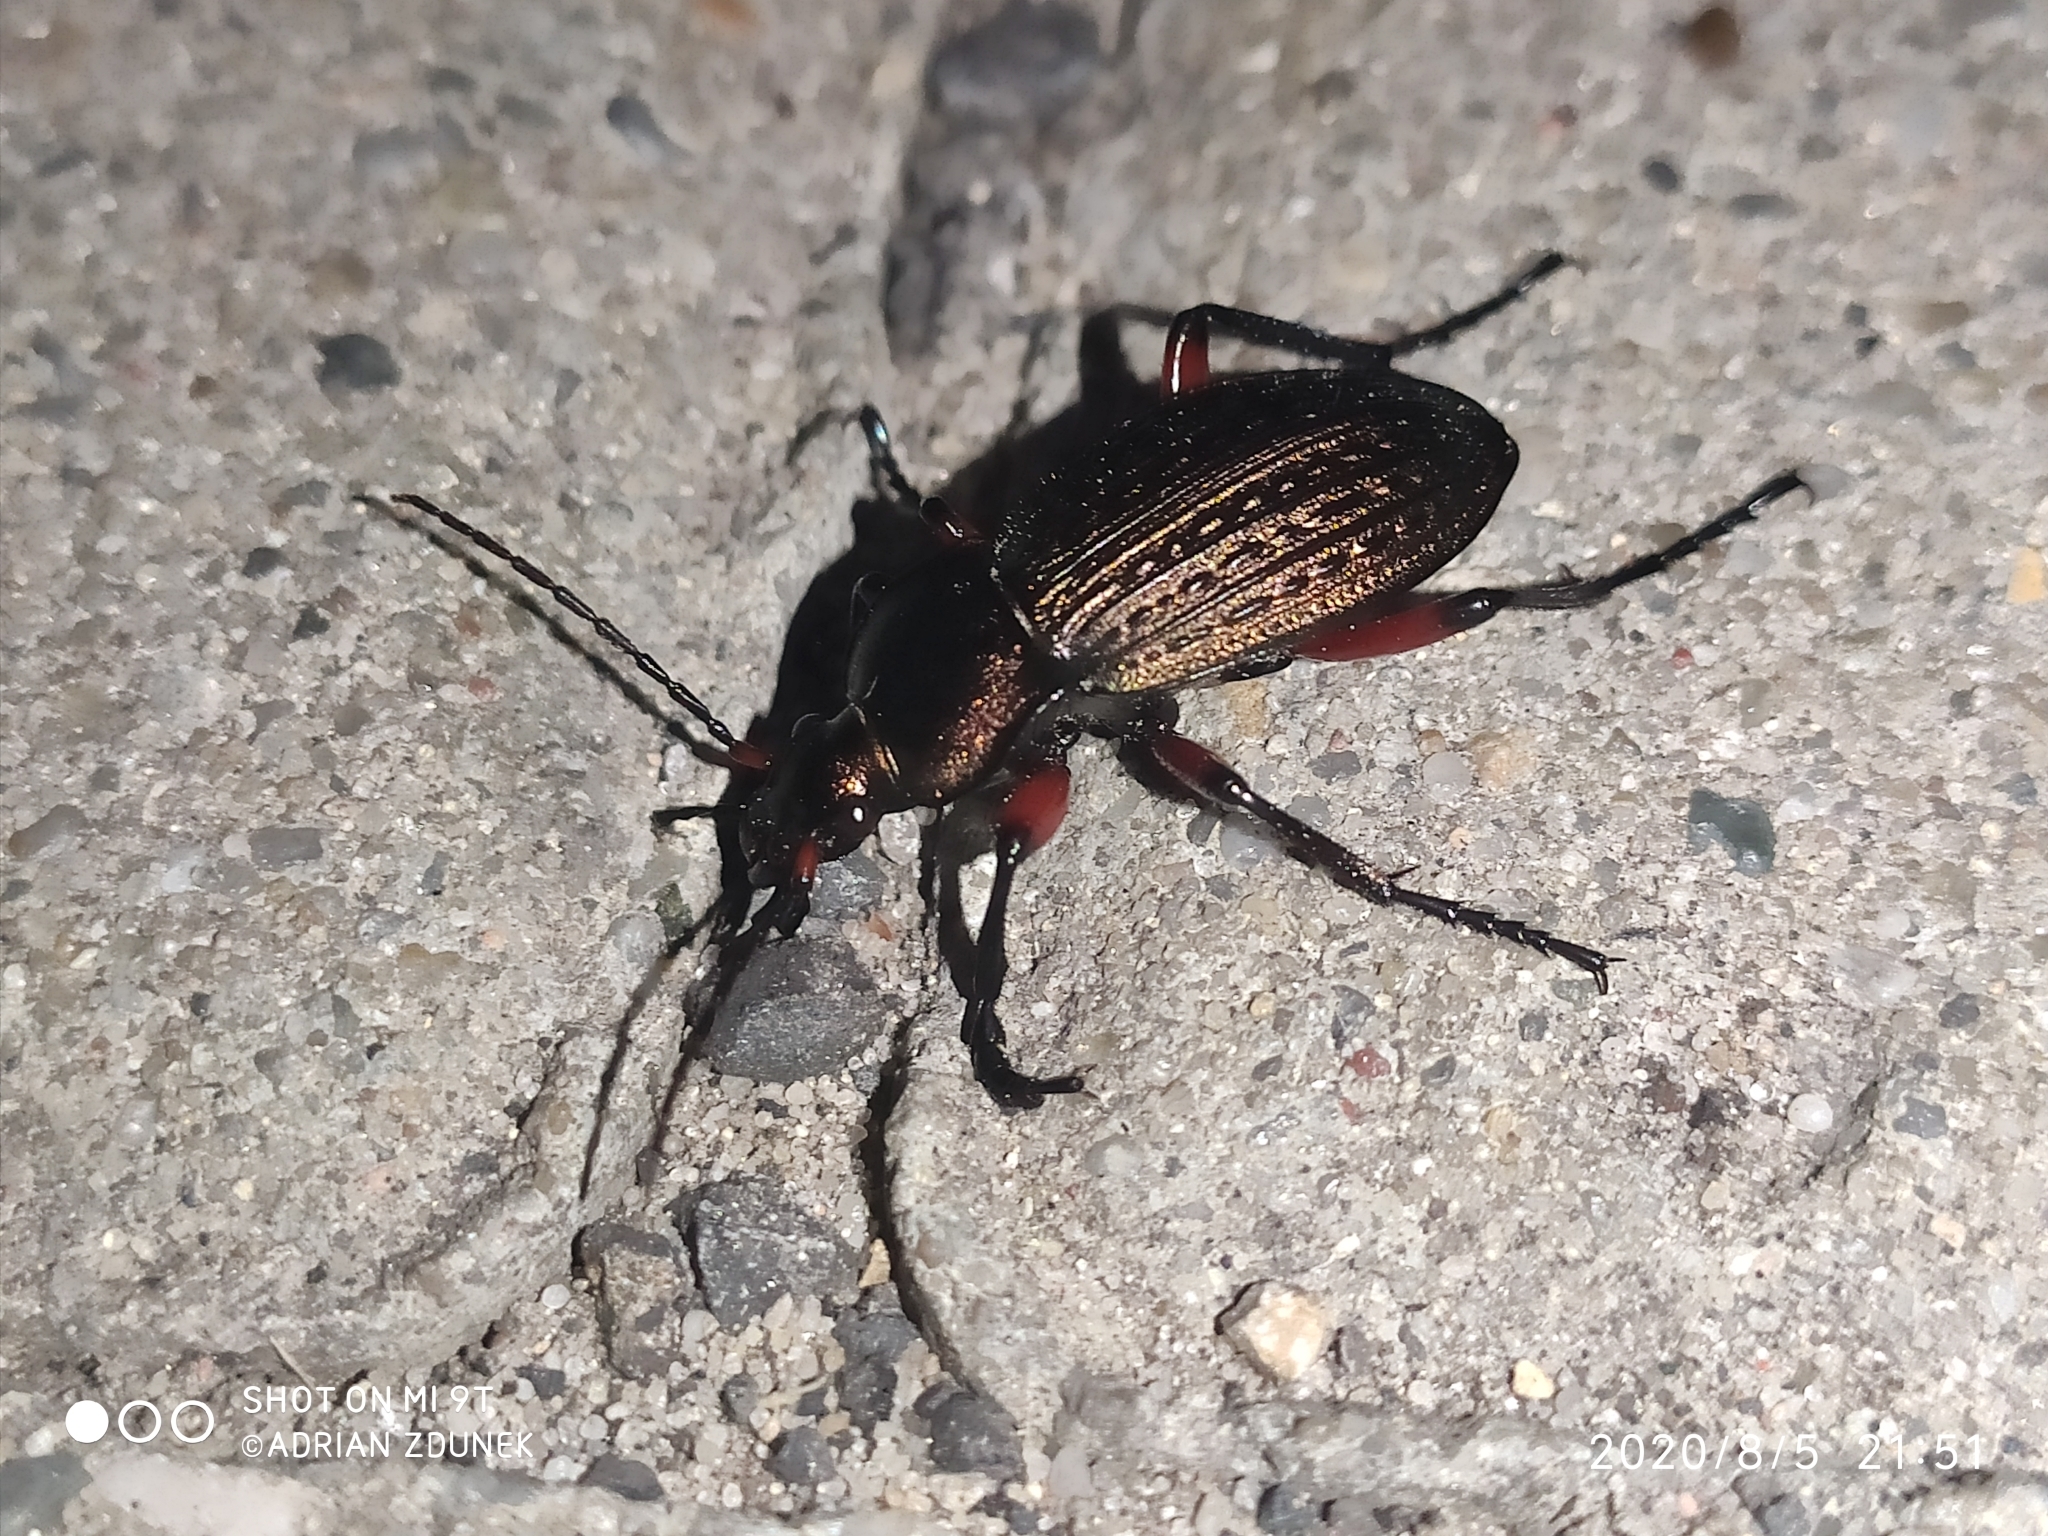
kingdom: Animalia
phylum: Arthropoda
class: Insecta
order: Coleoptera
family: Carabidae
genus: Carabus
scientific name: Carabus cancellatus
